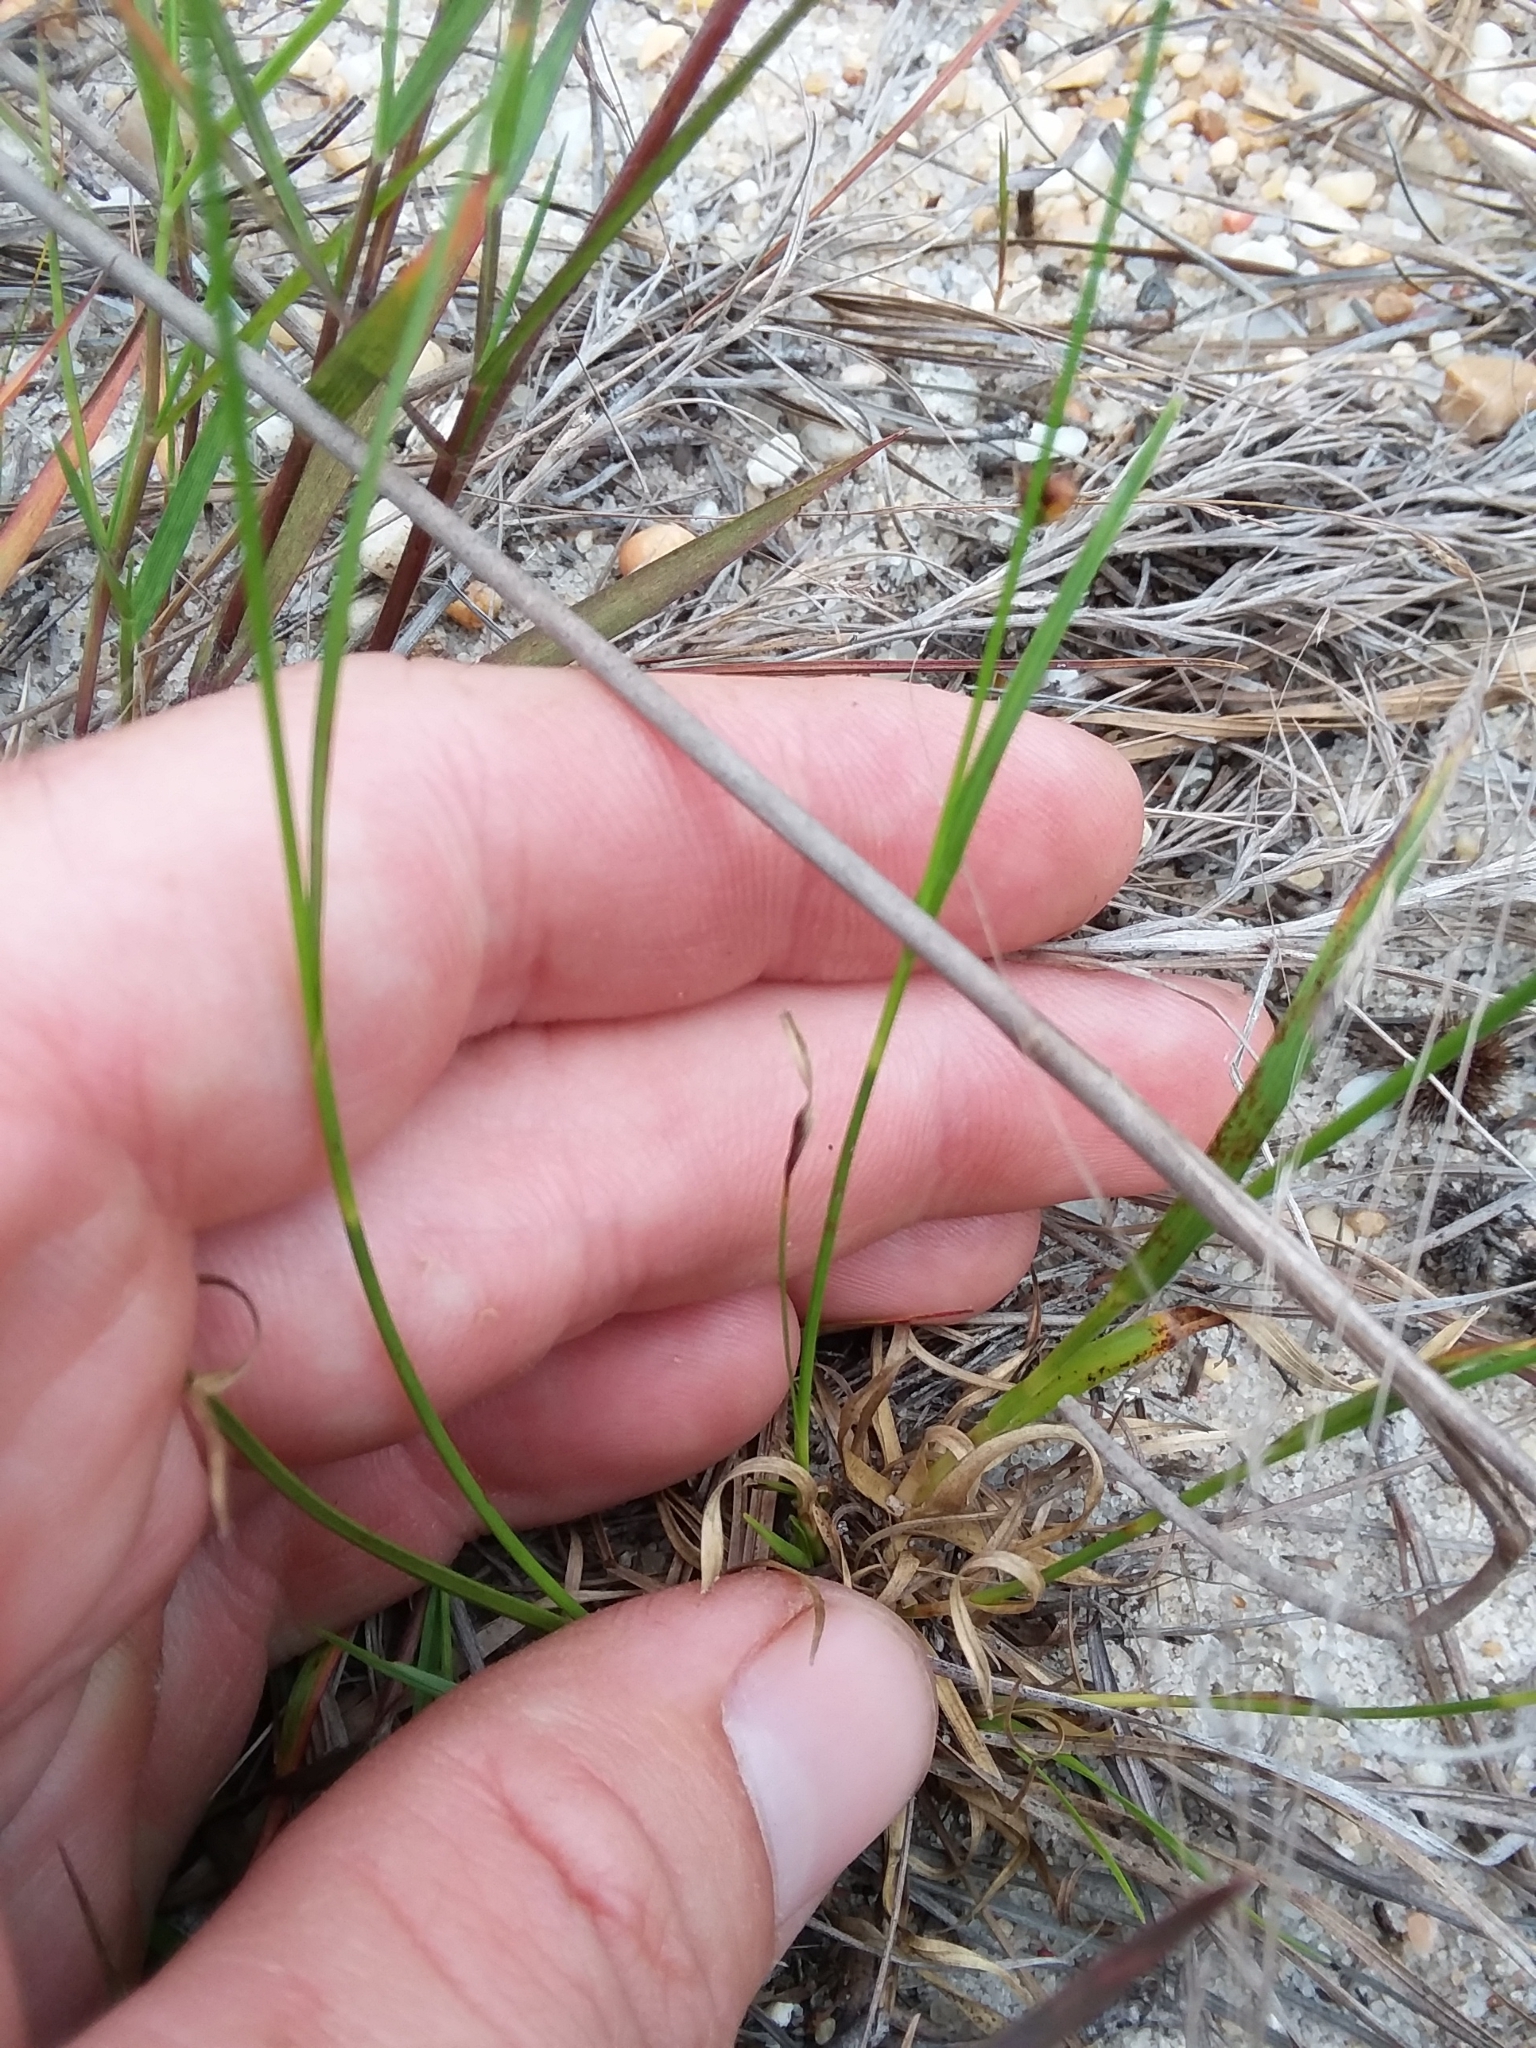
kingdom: Plantae
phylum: Tracheophyta
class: Liliopsida
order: Poales
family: Cyperaceae
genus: Rhynchospora
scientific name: Rhynchospora globularis
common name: Globe beaksedge
